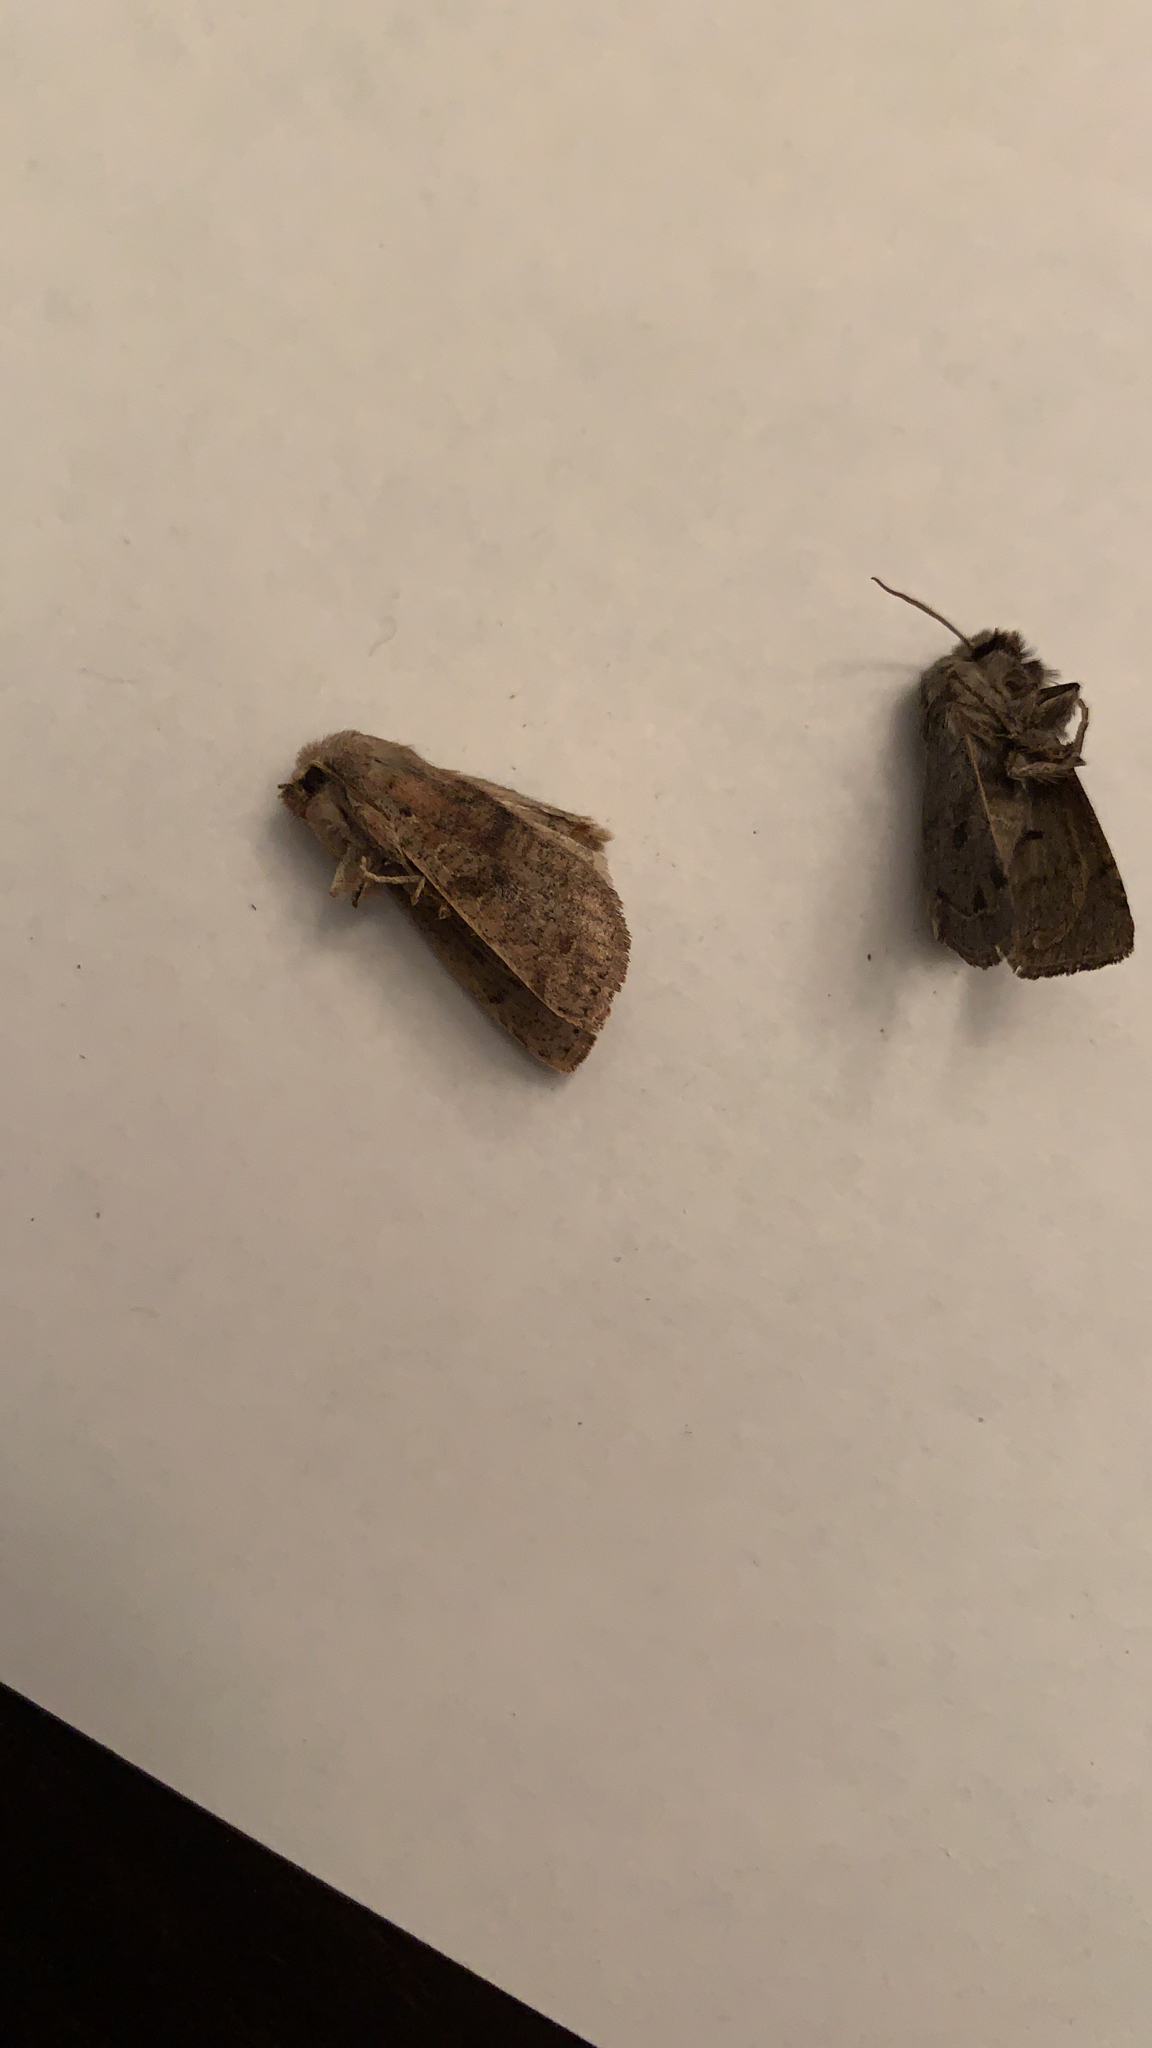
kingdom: Animalia
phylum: Arthropoda
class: Insecta
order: Lepidoptera
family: Noctuidae
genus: Orthosia
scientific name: Orthosia hibisci
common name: Green fruitworm
